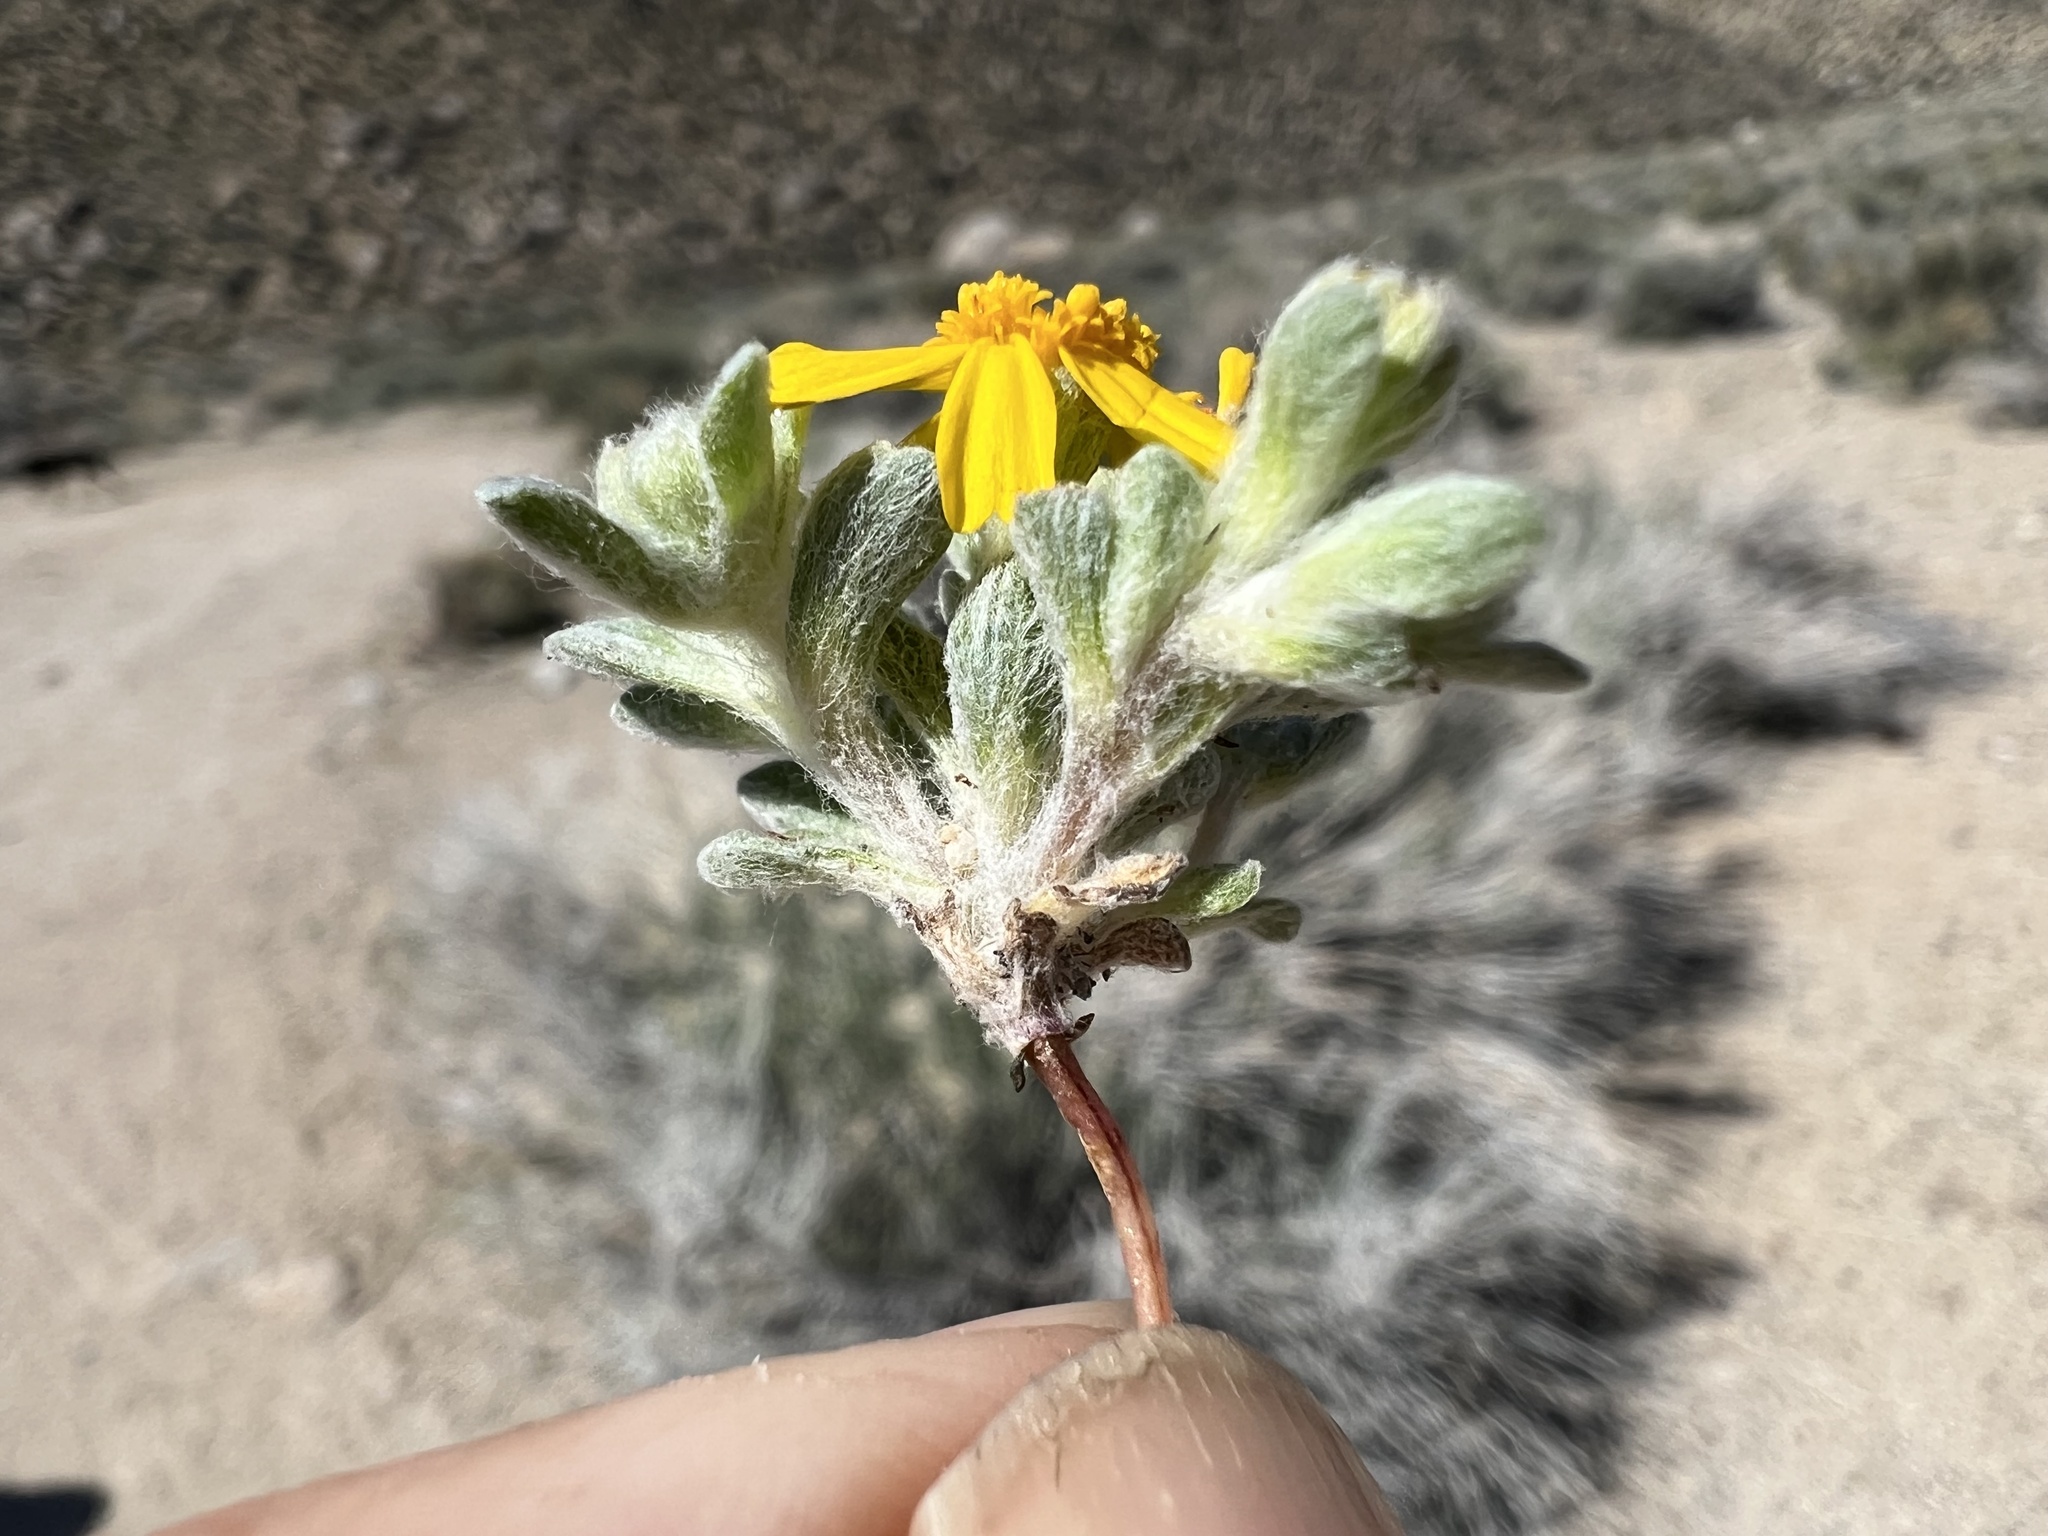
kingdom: Plantae
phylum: Tracheophyta
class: Magnoliopsida
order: Asterales
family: Asteraceae
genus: Eriophyllum
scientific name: Eriophyllum wallacei
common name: Wallace's woolly daisy
